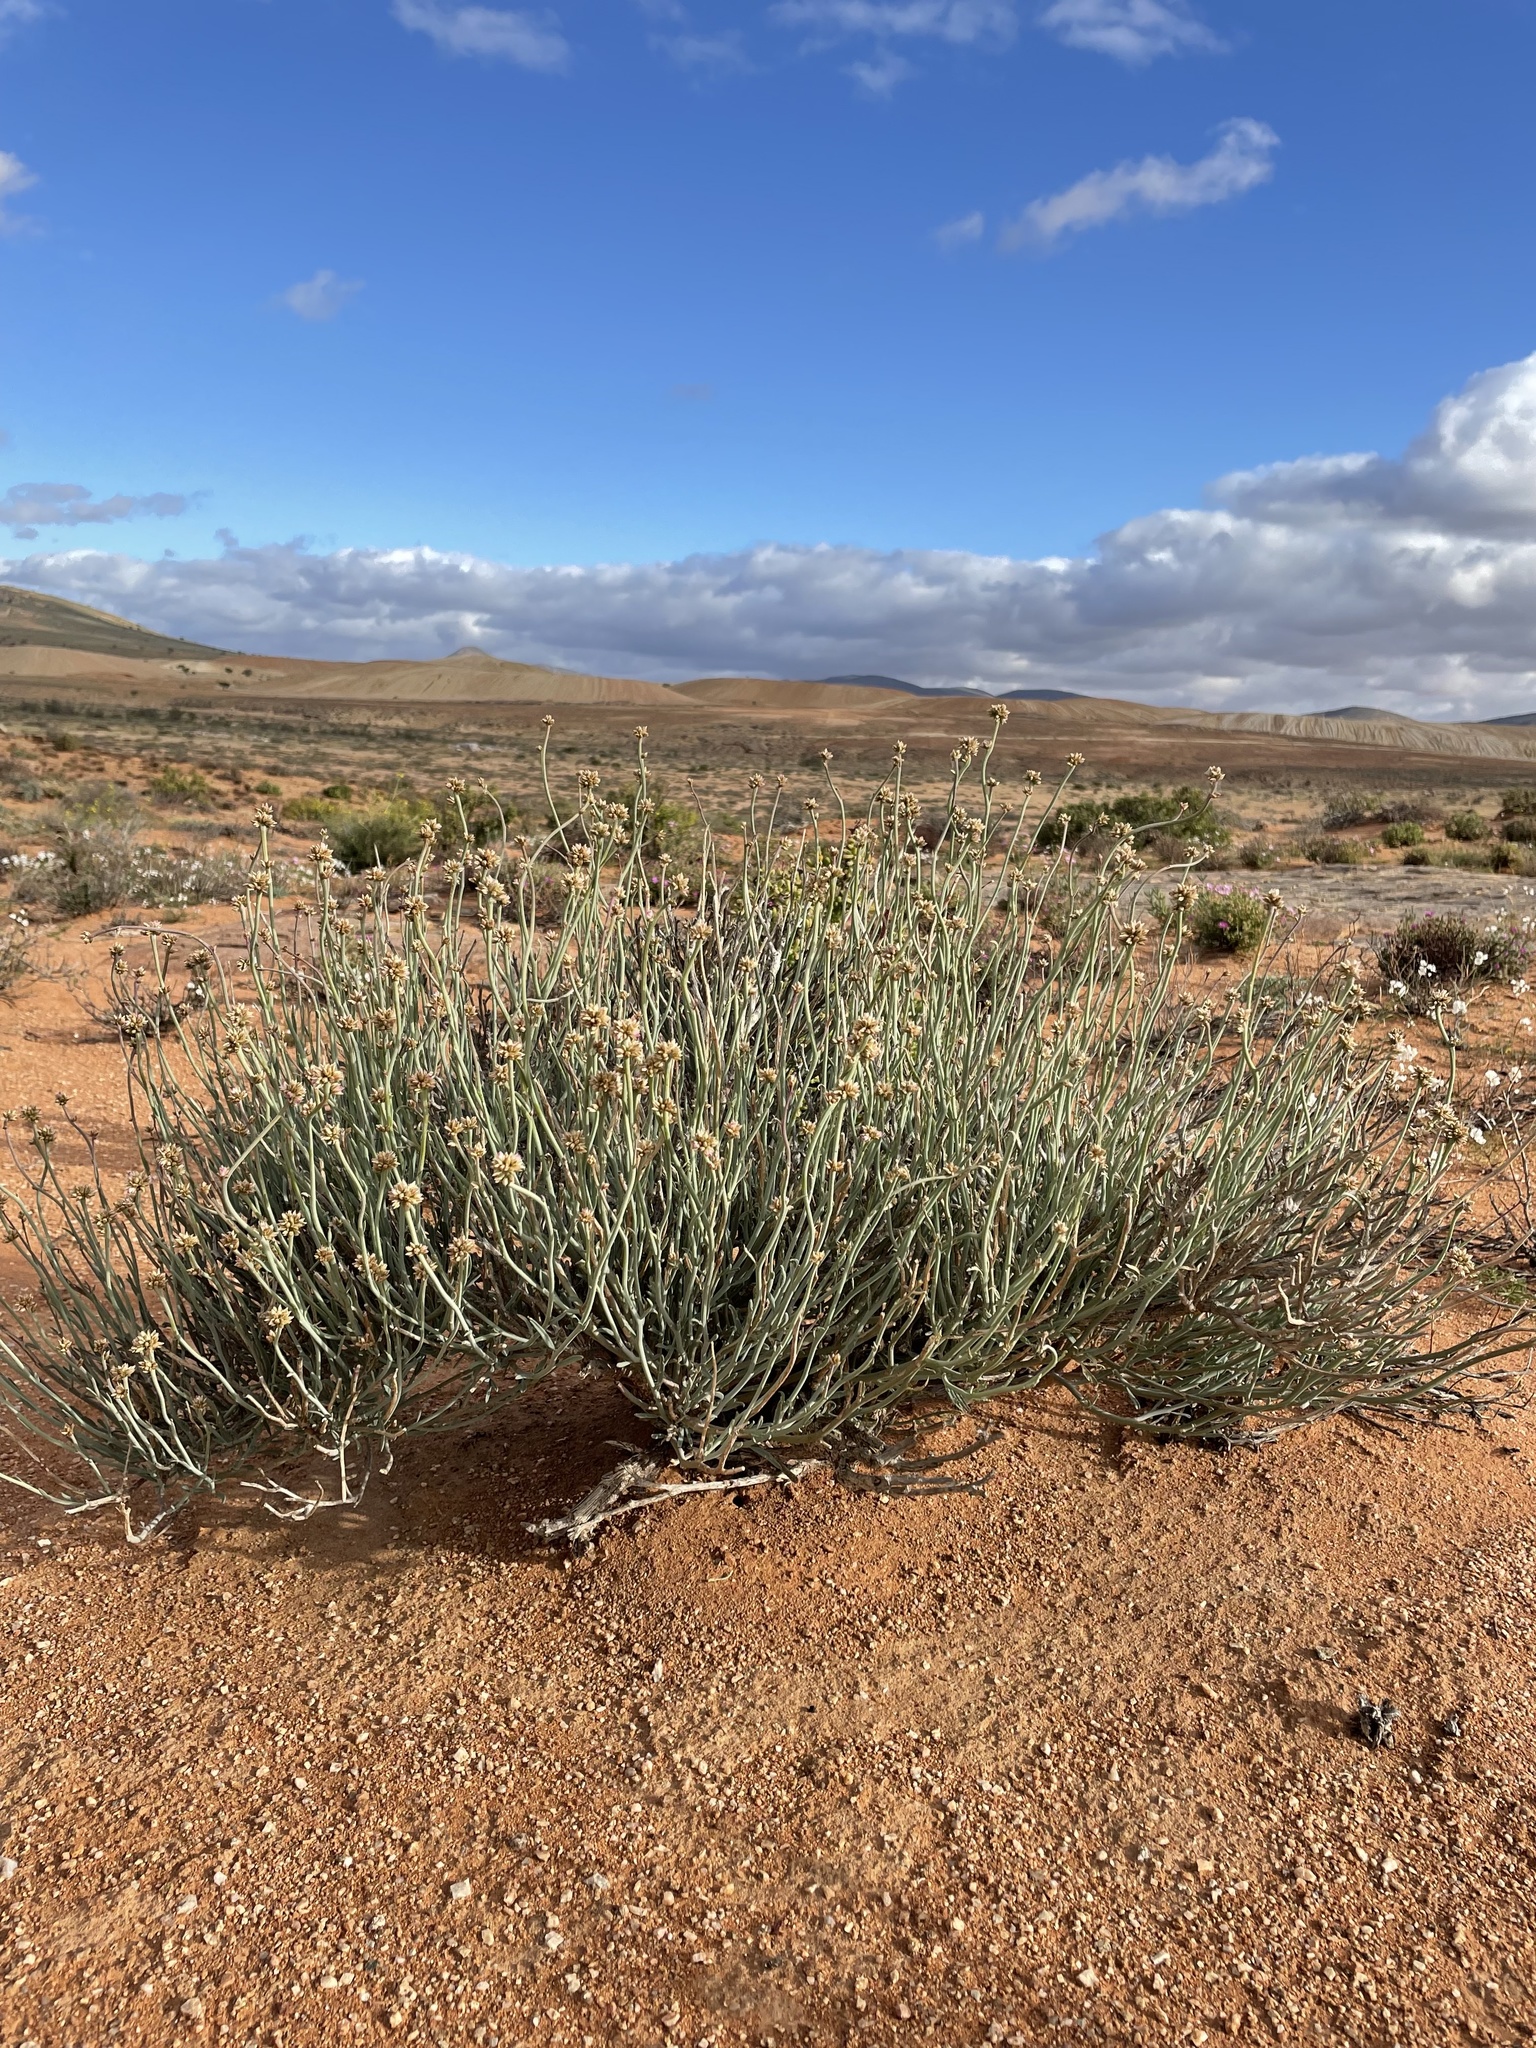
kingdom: Plantae
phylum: Tracheophyta
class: Magnoliopsida
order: Caryophyllales
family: Amaranthaceae
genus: Hermbstaedtia
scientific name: Hermbstaedtia glauca
